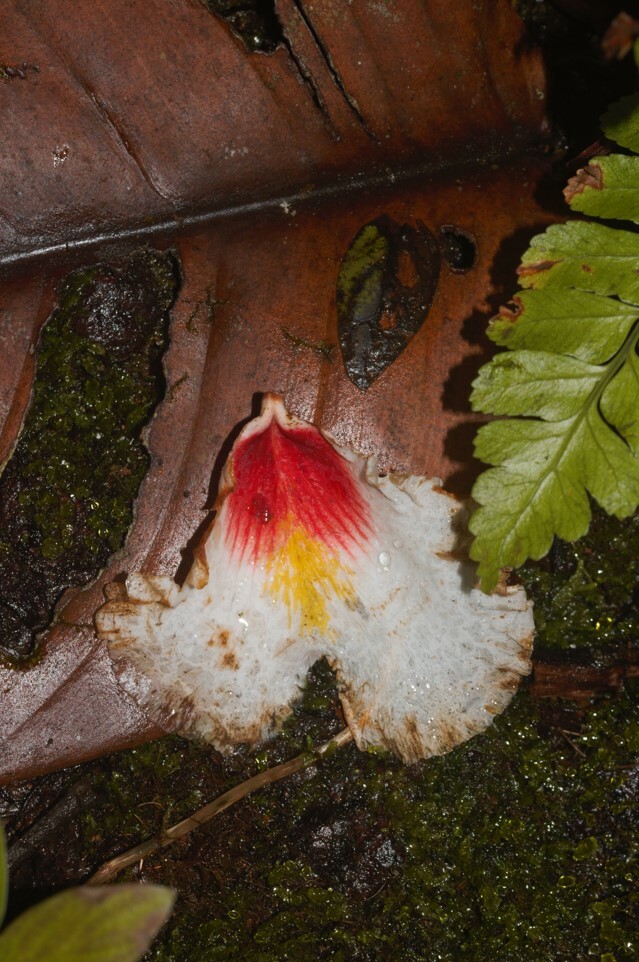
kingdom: Plantae
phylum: Tracheophyta
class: Magnoliopsida
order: Myrtales
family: Vochysiaceae
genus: Qualea
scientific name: Qualea rosea
